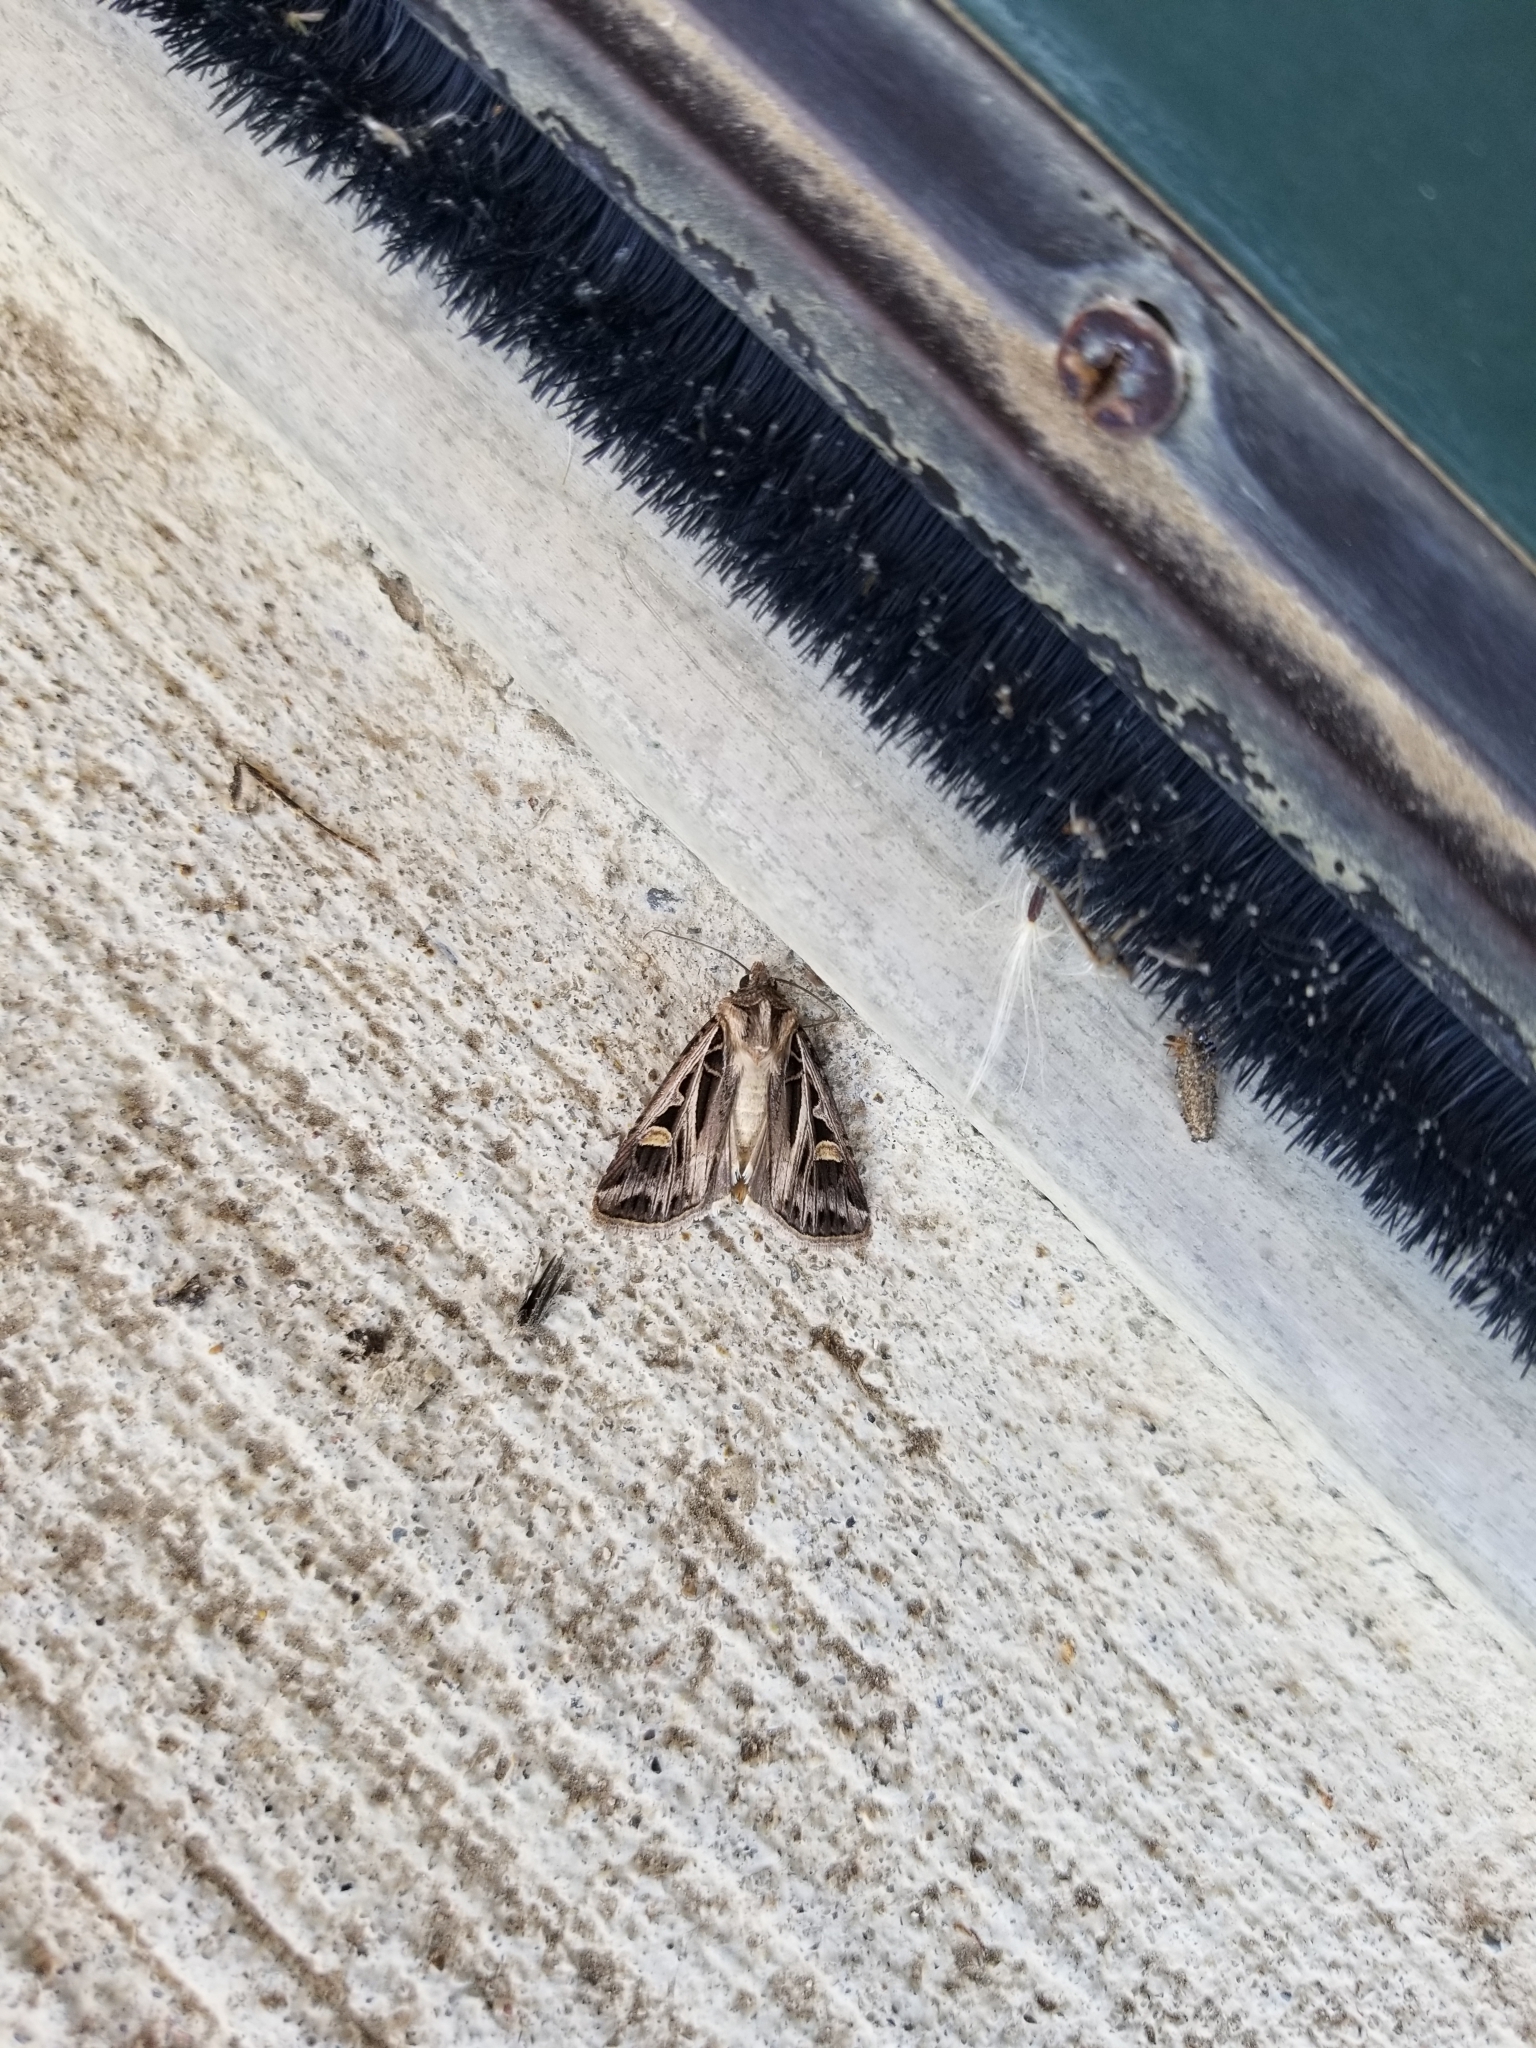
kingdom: Animalia
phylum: Arthropoda
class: Insecta
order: Lepidoptera
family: Noctuidae
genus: Feltia
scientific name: Feltia jaculifera
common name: Dingy cutworm moth
